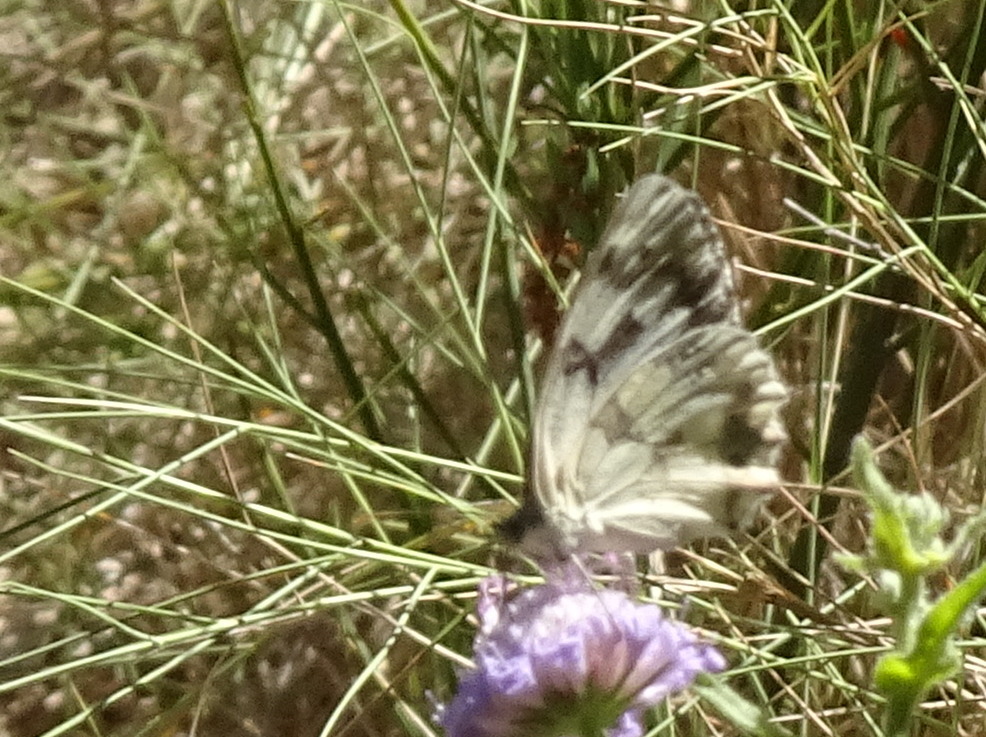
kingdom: Animalia
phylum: Arthropoda
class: Insecta
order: Lepidoptera
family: Nymphalidae
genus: Melanargia
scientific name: Melanargia lachesis
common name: Iberian marbled white
